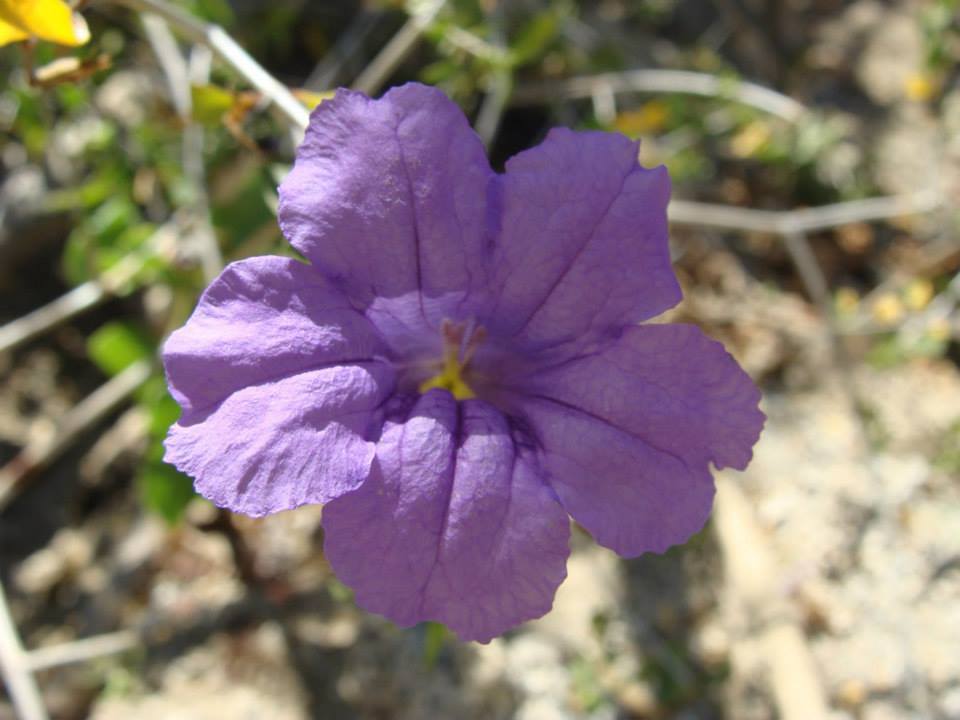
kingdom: Plantae
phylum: Tracheophyta
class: Magnoliopsida
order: Lamiales
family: Acanthaceae
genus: Ruellia
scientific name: Ruellia californica
